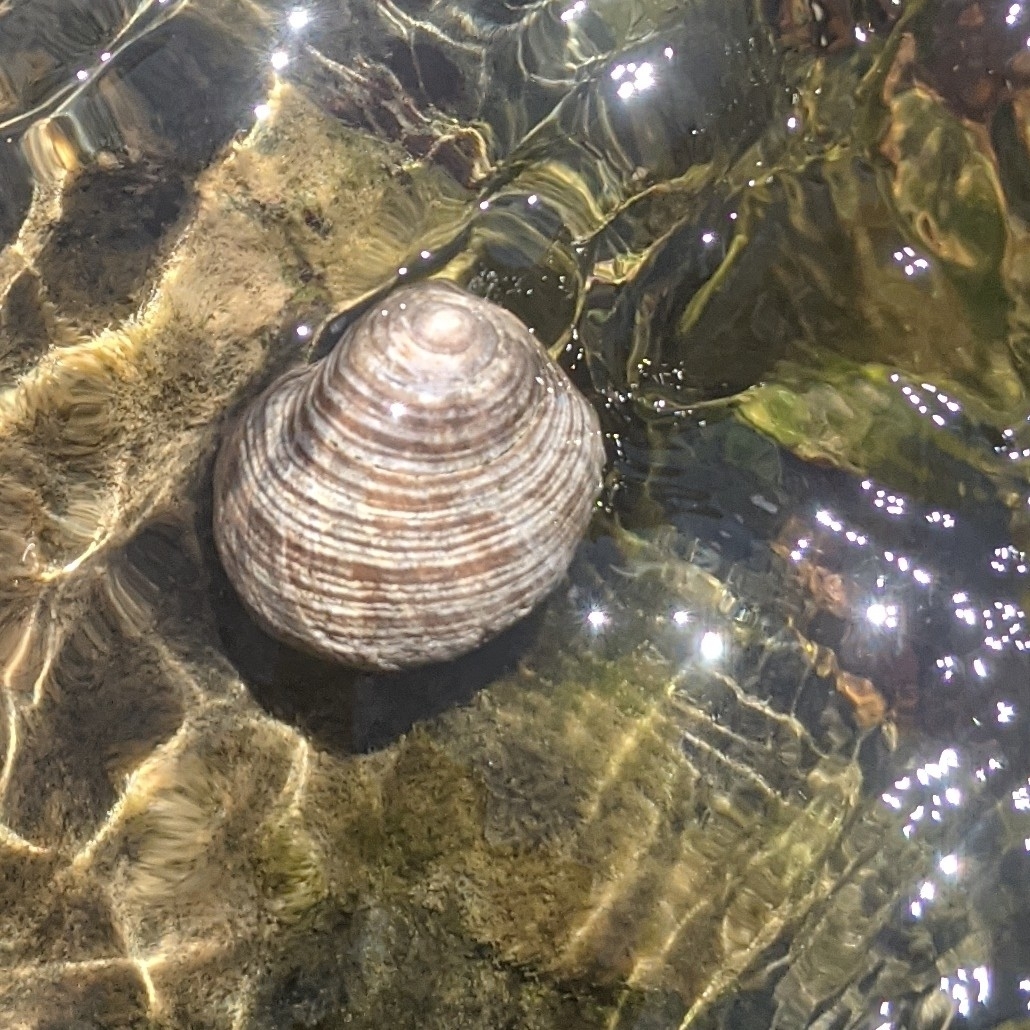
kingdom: Animalia
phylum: Mollusca
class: Gastropoda
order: Littorinimorpha
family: Littorinidae
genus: Littorina
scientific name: Littorina littorea
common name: Common periwinkle
